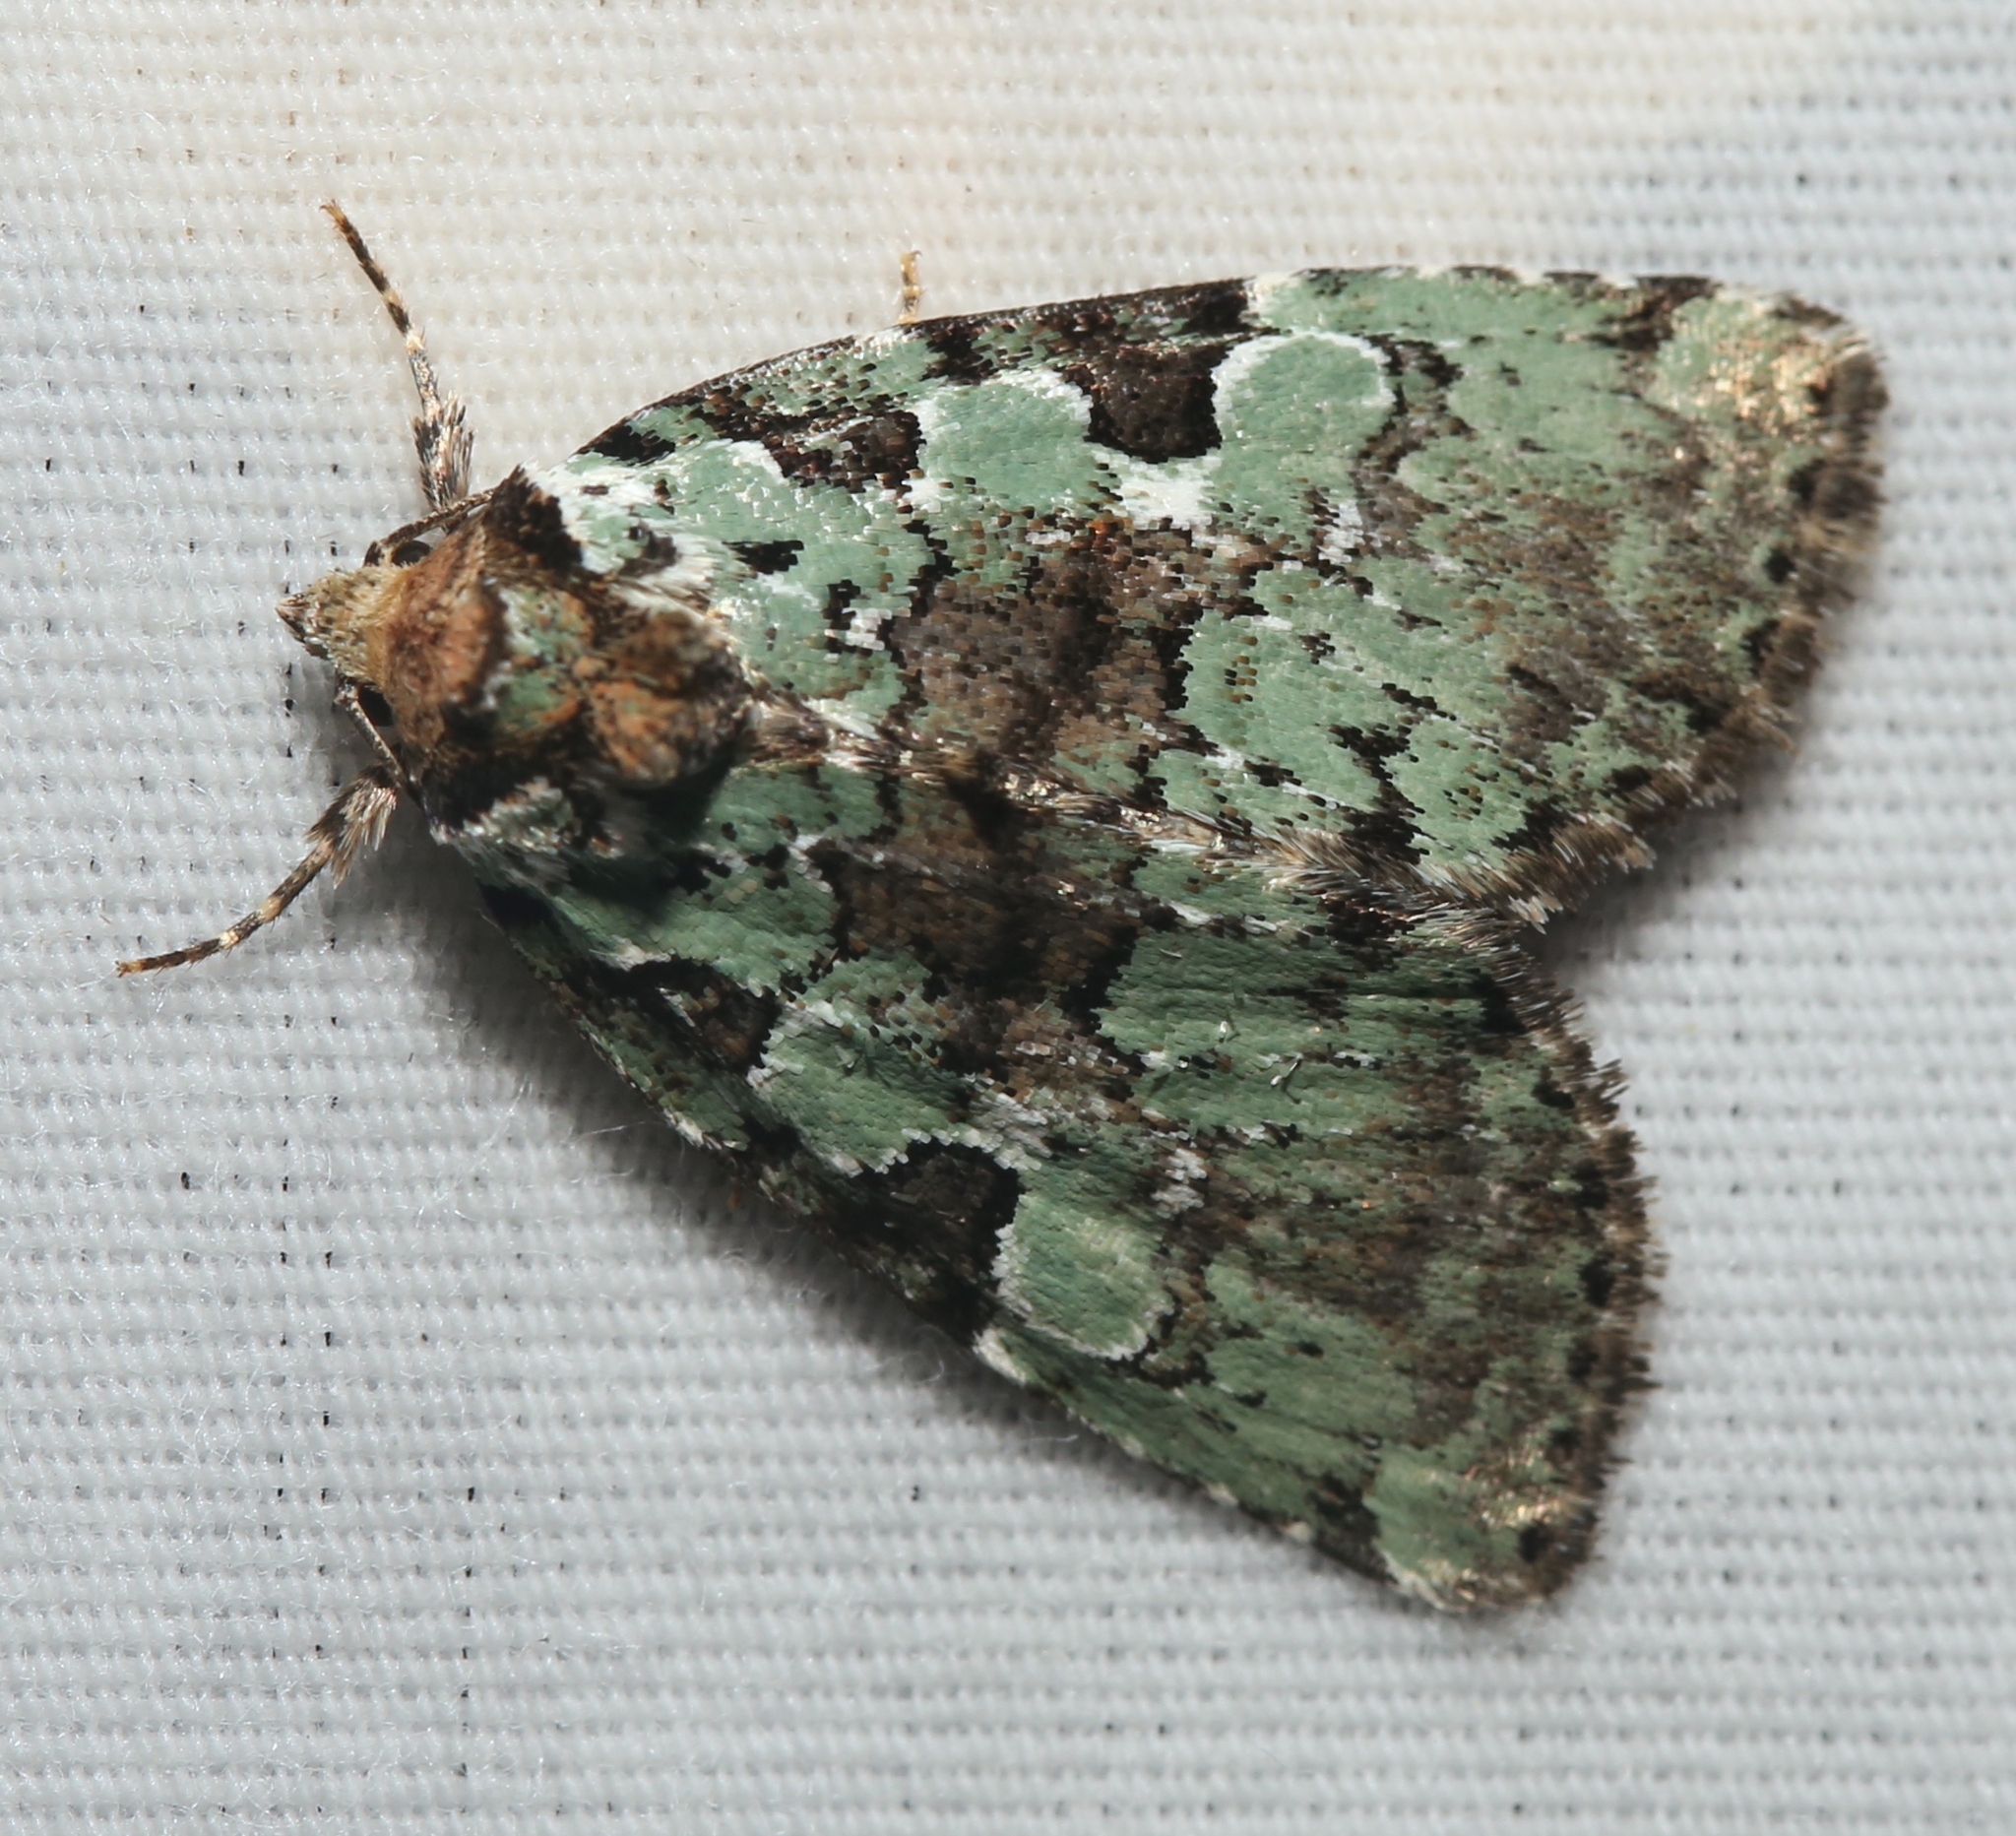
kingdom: Animalia
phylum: Arthropoda
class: Insecta
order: Lepidoptera
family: Noctuidae
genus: Leuconycta
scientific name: Leuconycta lepidula
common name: Marbled-green leuconycta moth
